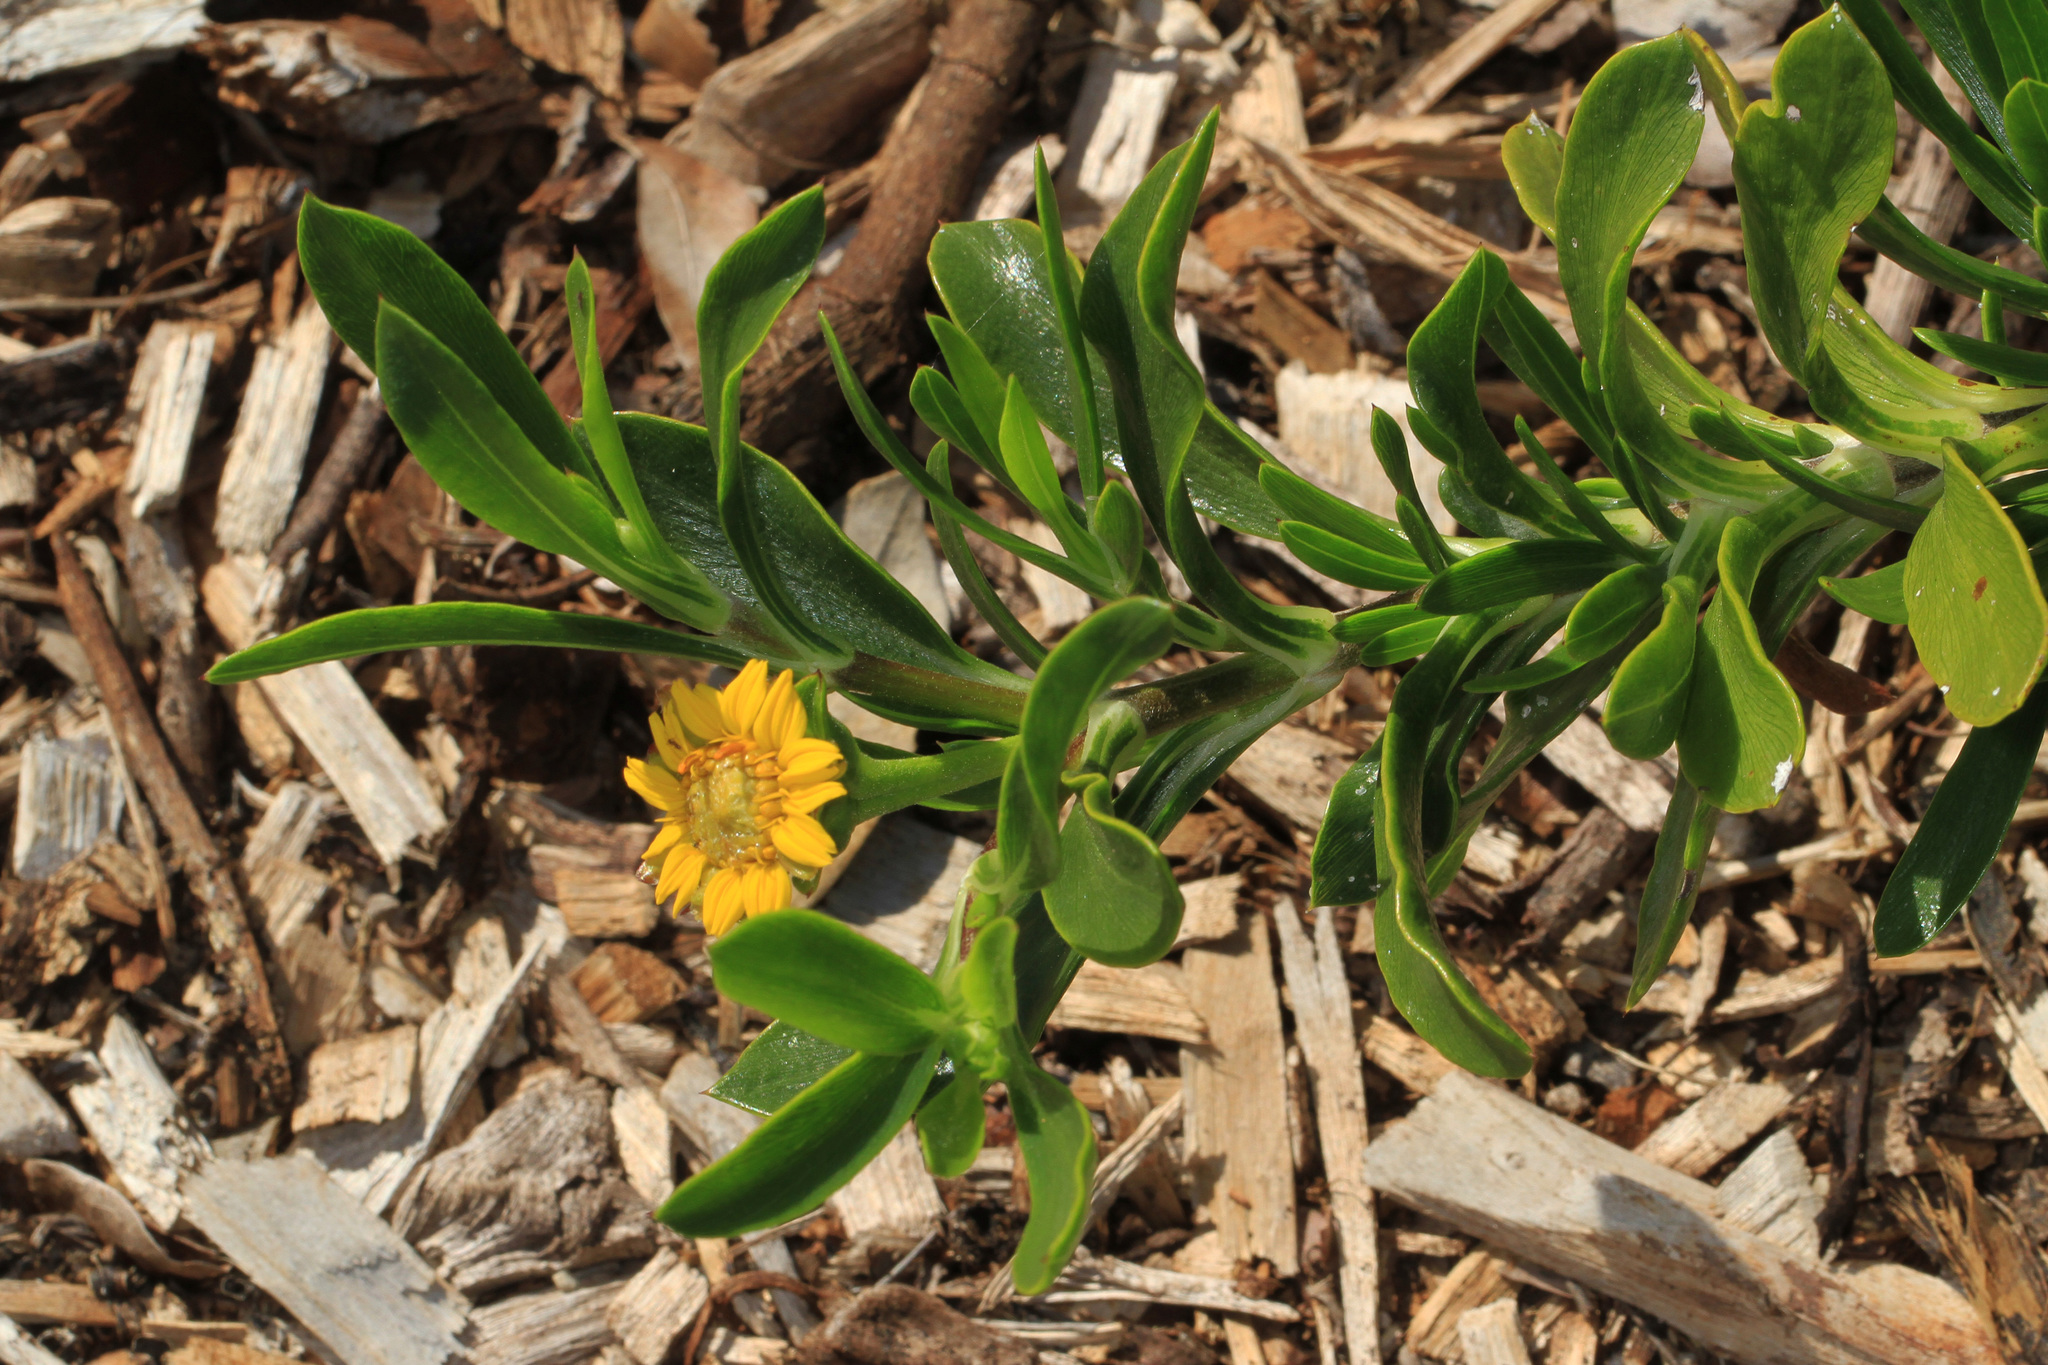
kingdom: Plantae
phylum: Tracheophyta
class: Magnoliopsida
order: Asterales
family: Asteraceae
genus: Borrichia
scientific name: Borrichia arborescens
